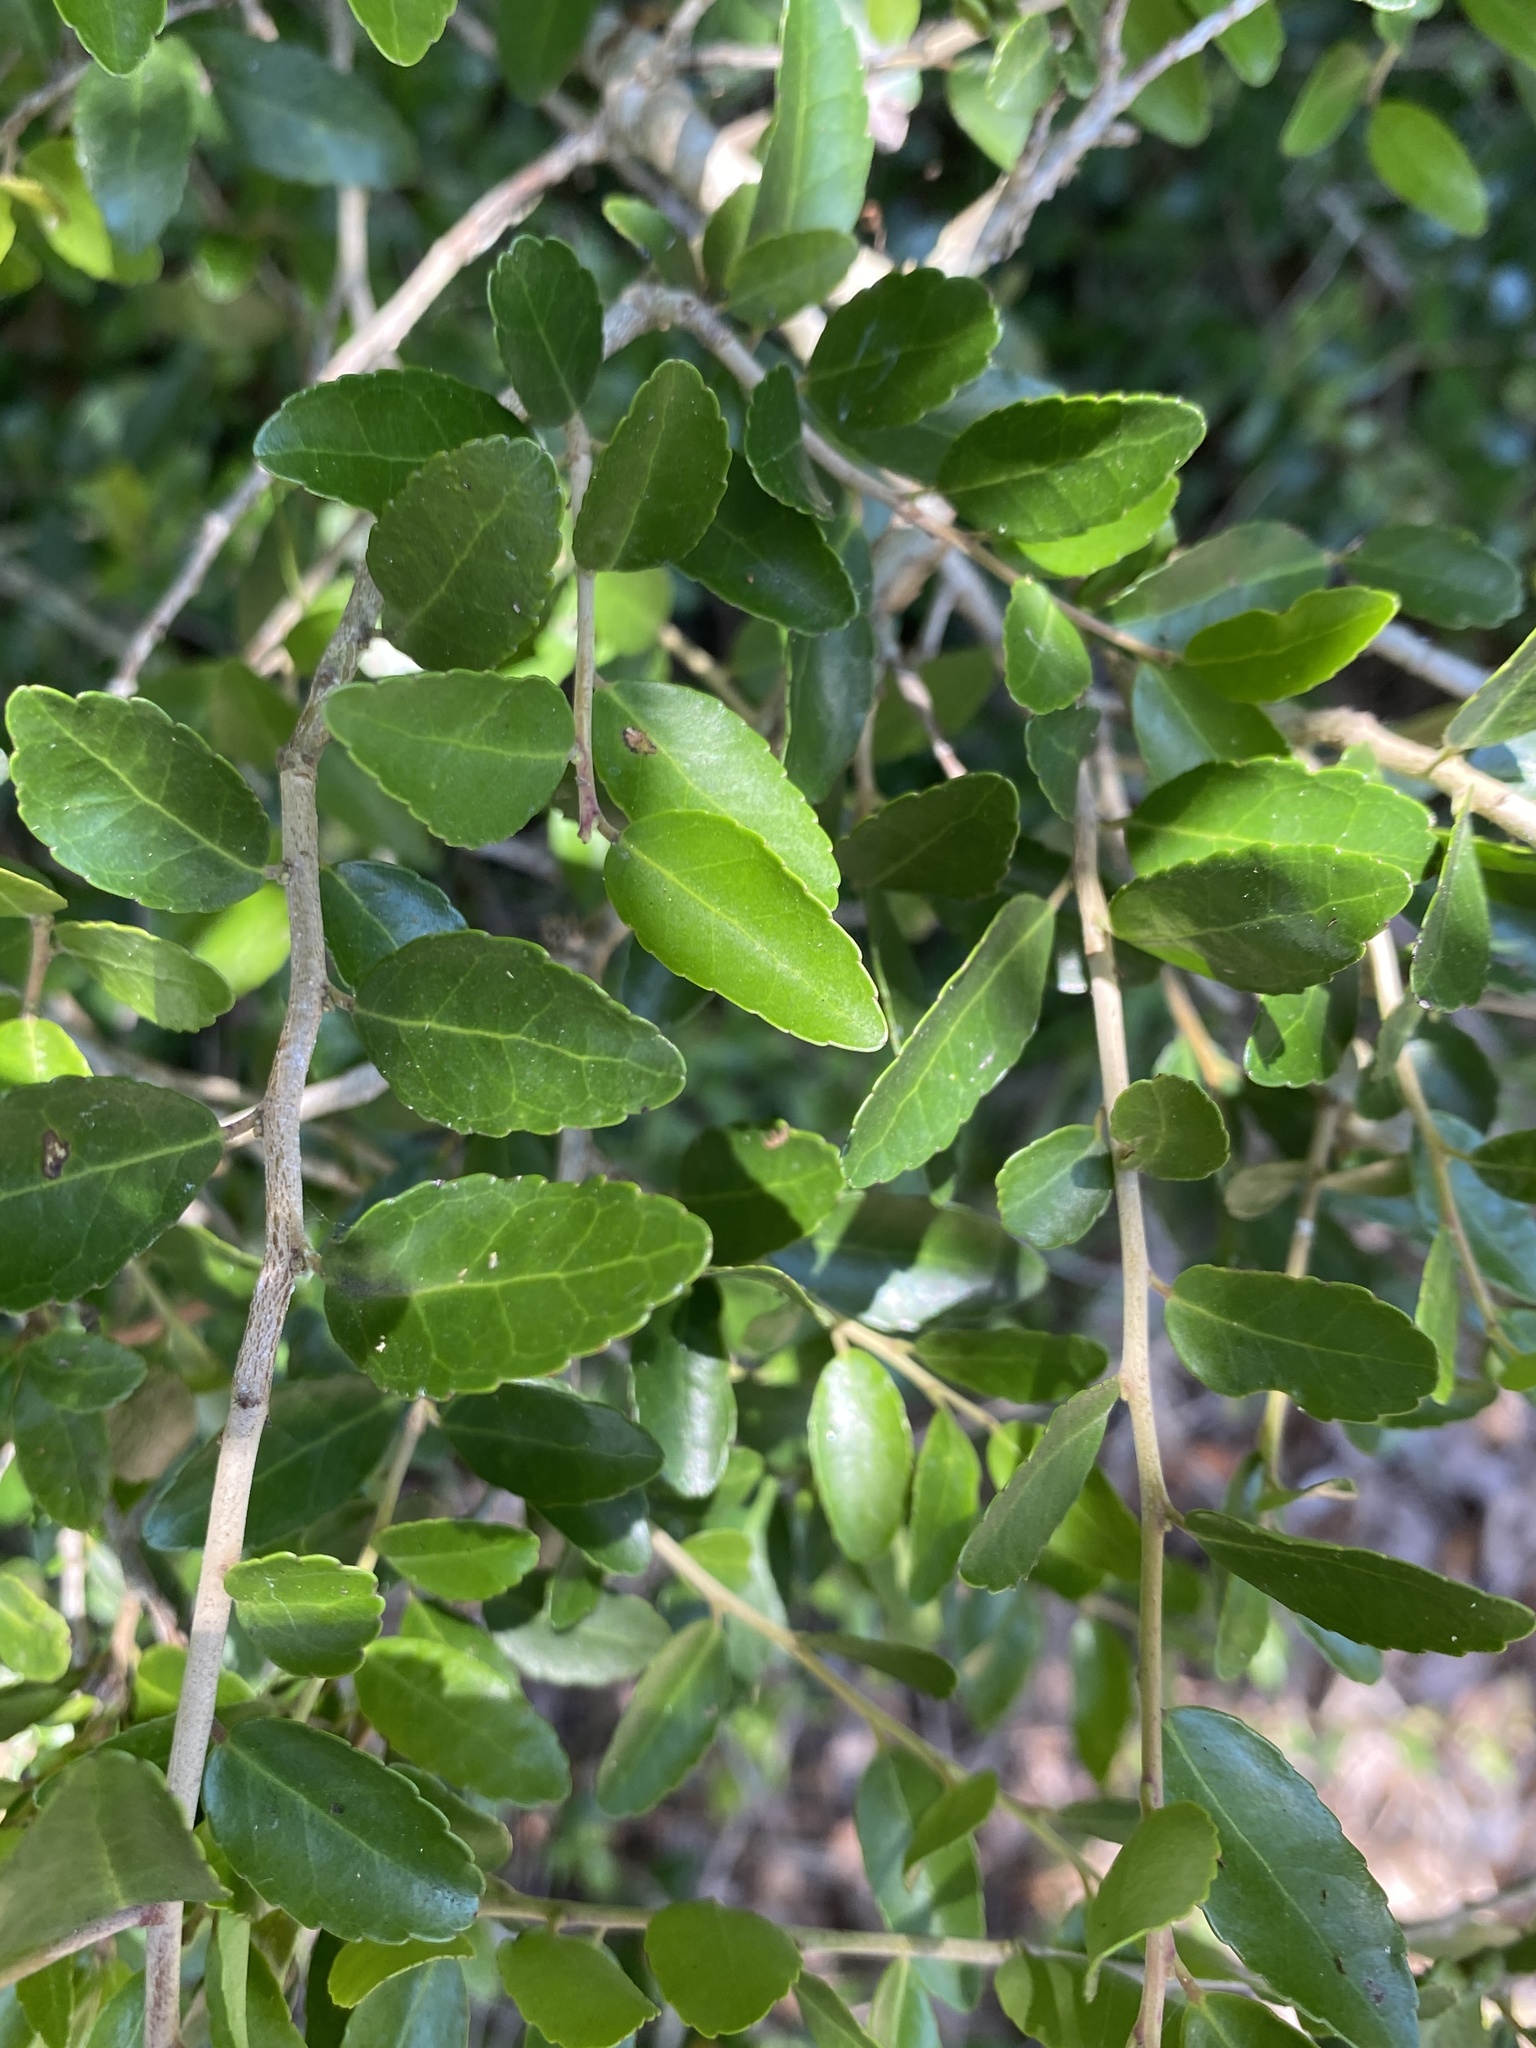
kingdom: Plantae
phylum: Tracheophyta
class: Magnoliopsida
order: Aquifoliales
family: Aquifoliaceae
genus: Ilex
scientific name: Ilex vomitoria
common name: Yaupon holly
